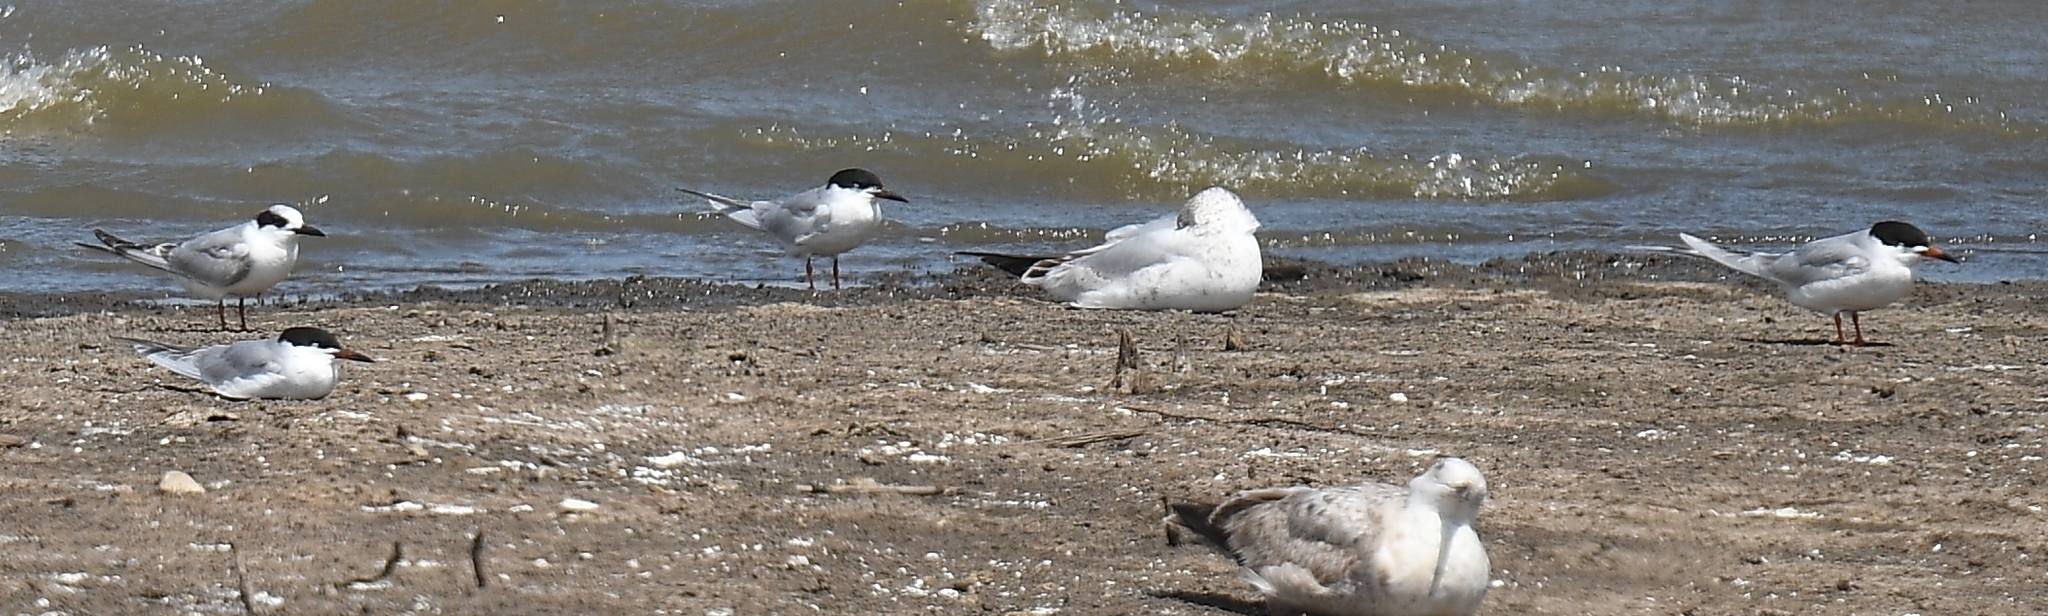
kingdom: Animalia
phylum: Chordata
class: Aves
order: Charadriiformes
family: Laridae
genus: Sterna
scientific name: Sterna forsteri
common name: Forster's tern
